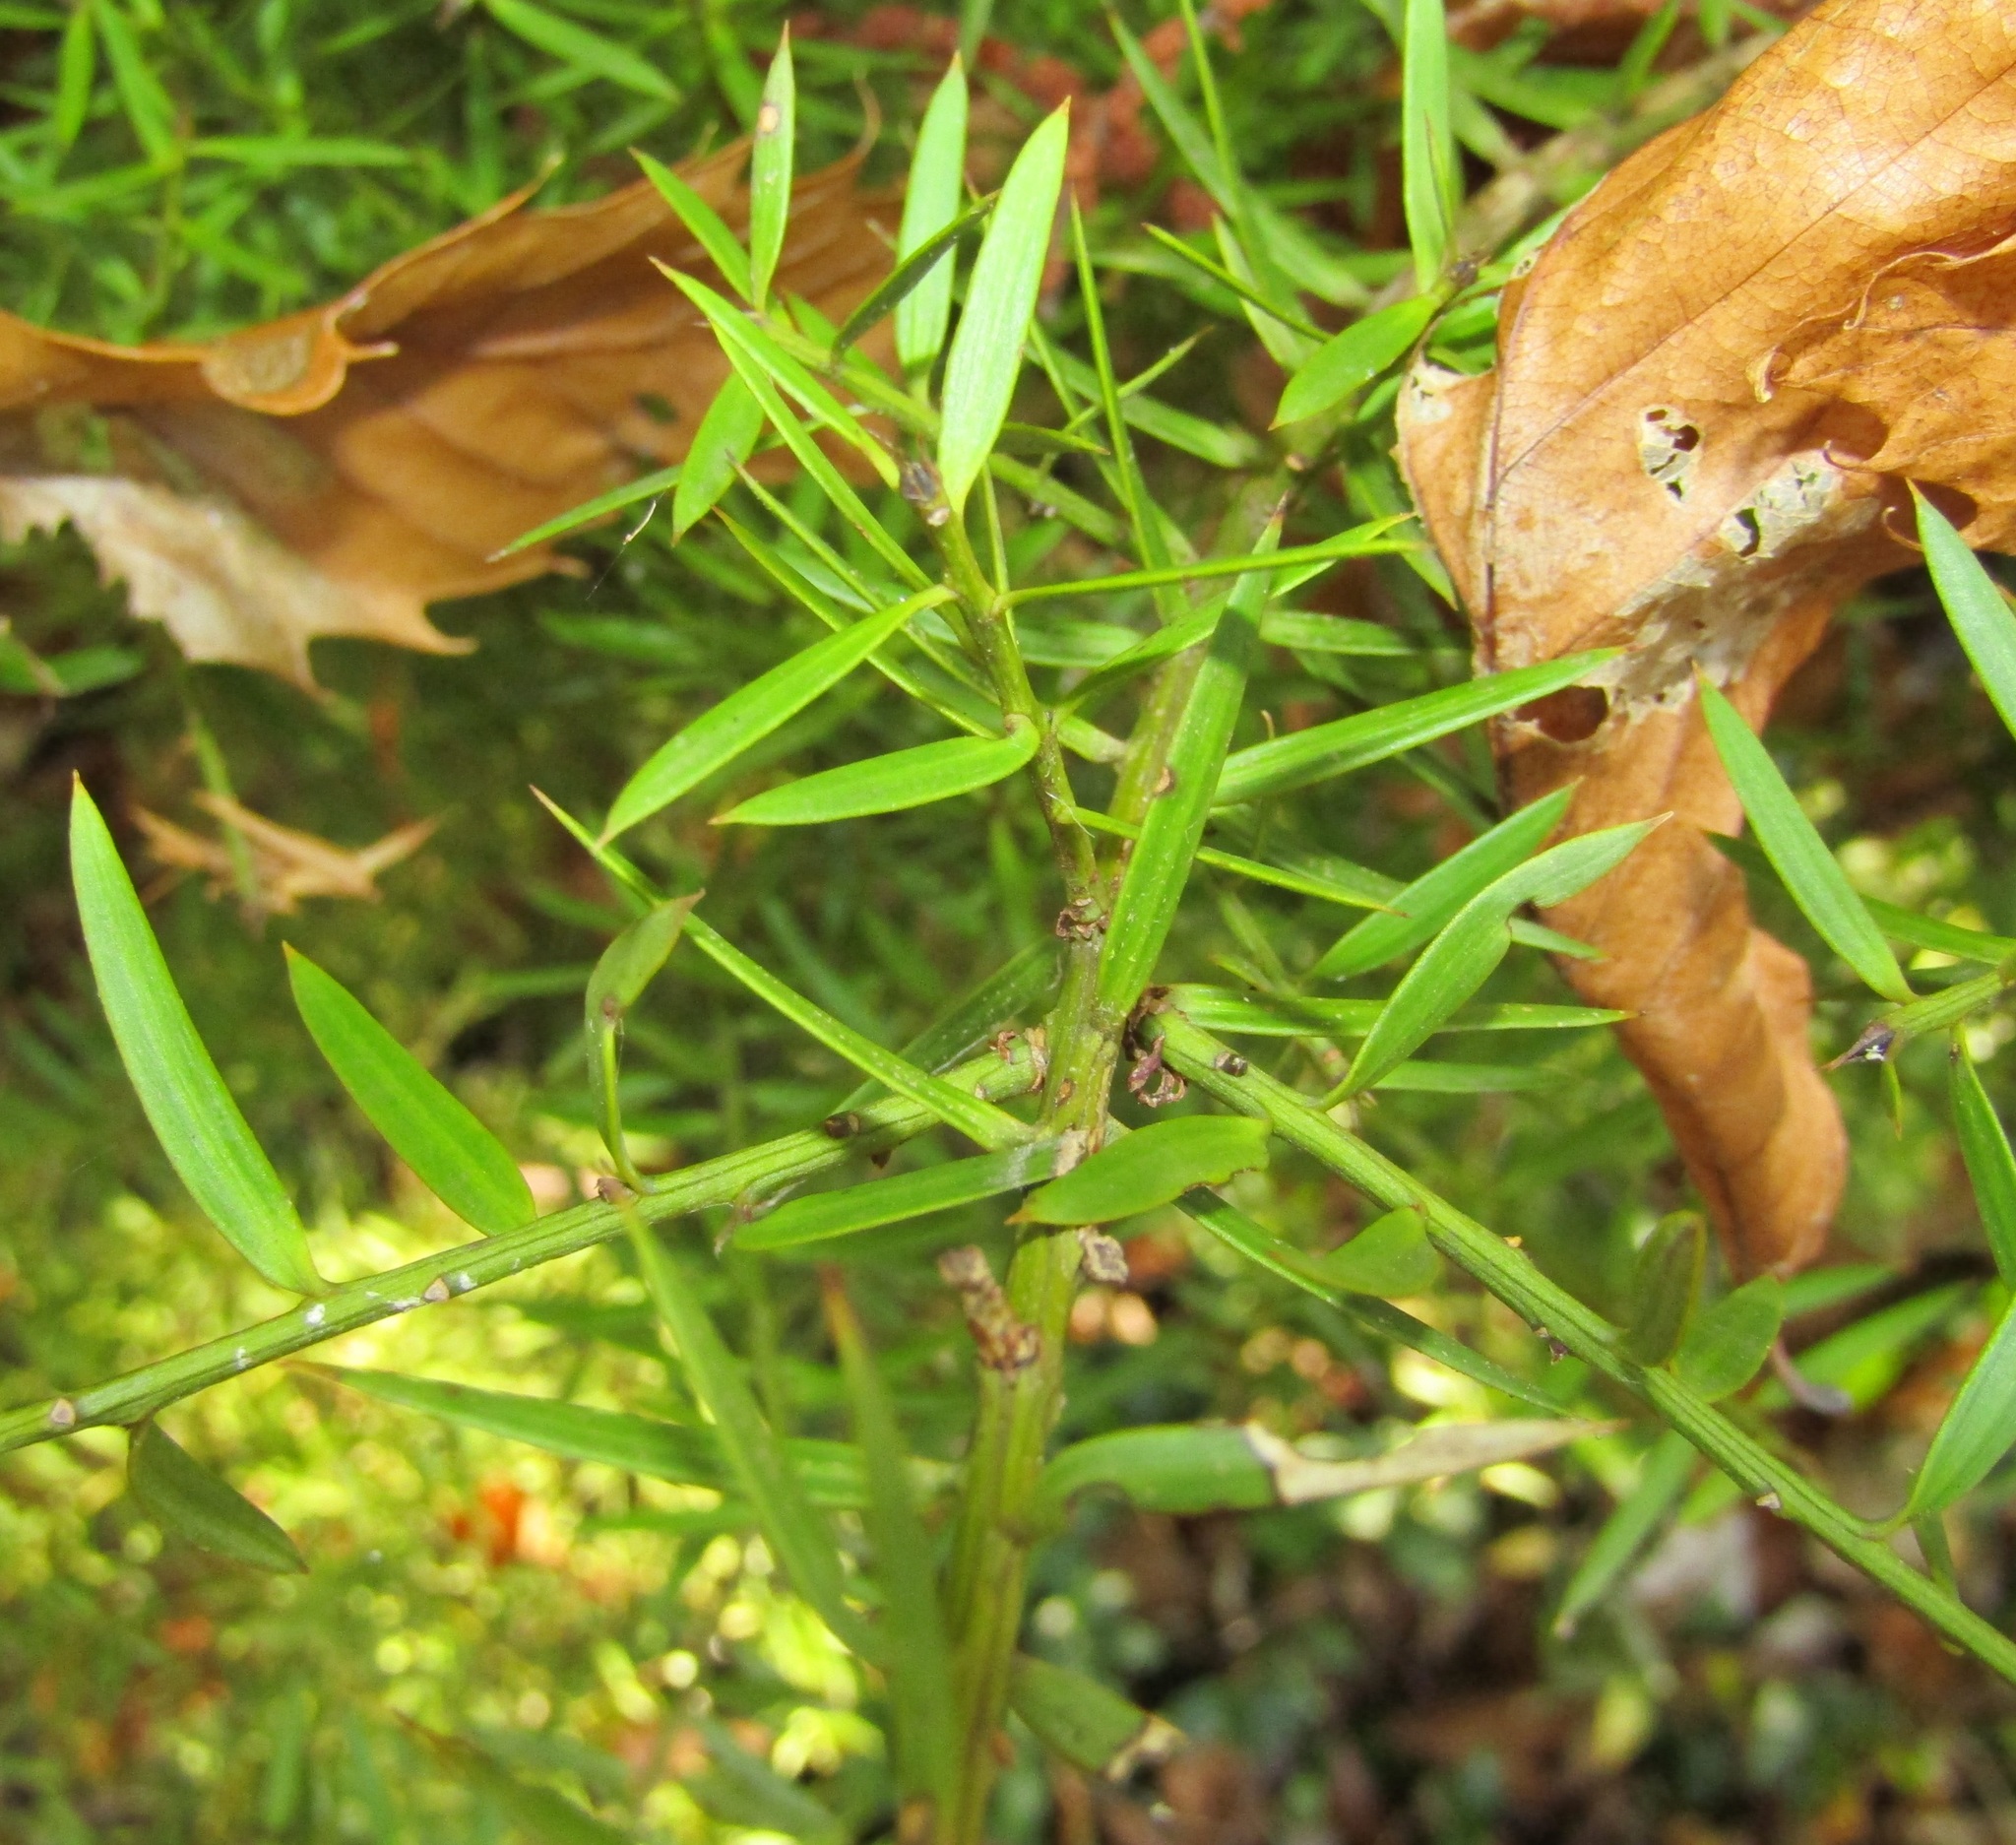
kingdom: Plantae
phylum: Tracheophyta
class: Pinopsida
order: Pinales
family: Podocarpaceae
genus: Podocarpus
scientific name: Podocarpus totara
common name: Totara
